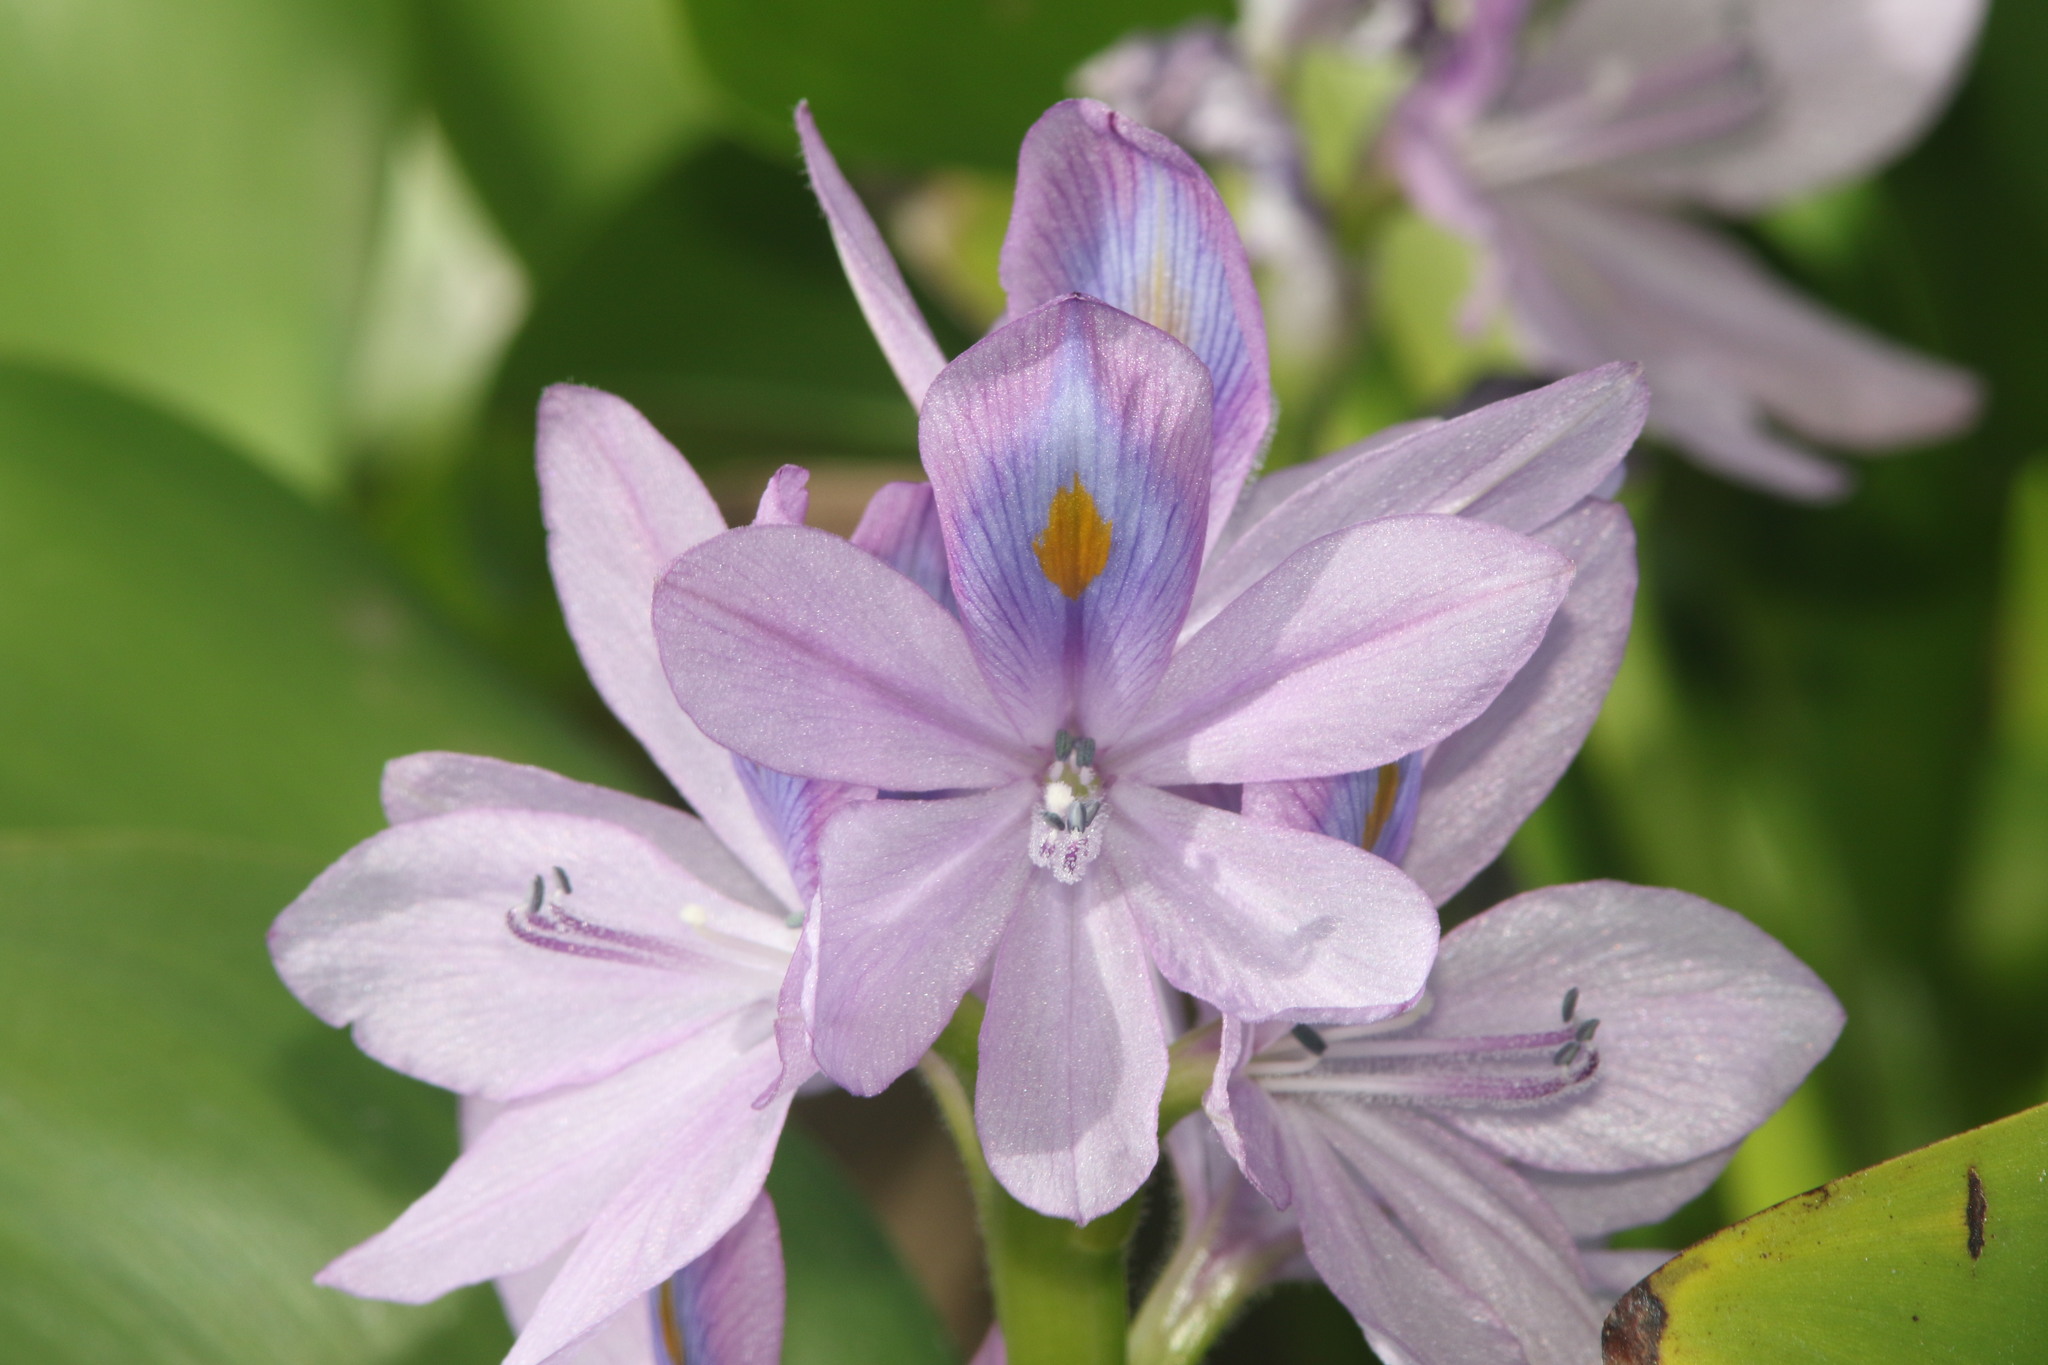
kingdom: Plantae
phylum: Tracheophyta
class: Liliopsida
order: Commelinales
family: Pontederiaceae
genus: Pontederia
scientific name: Pontederia crassipes
